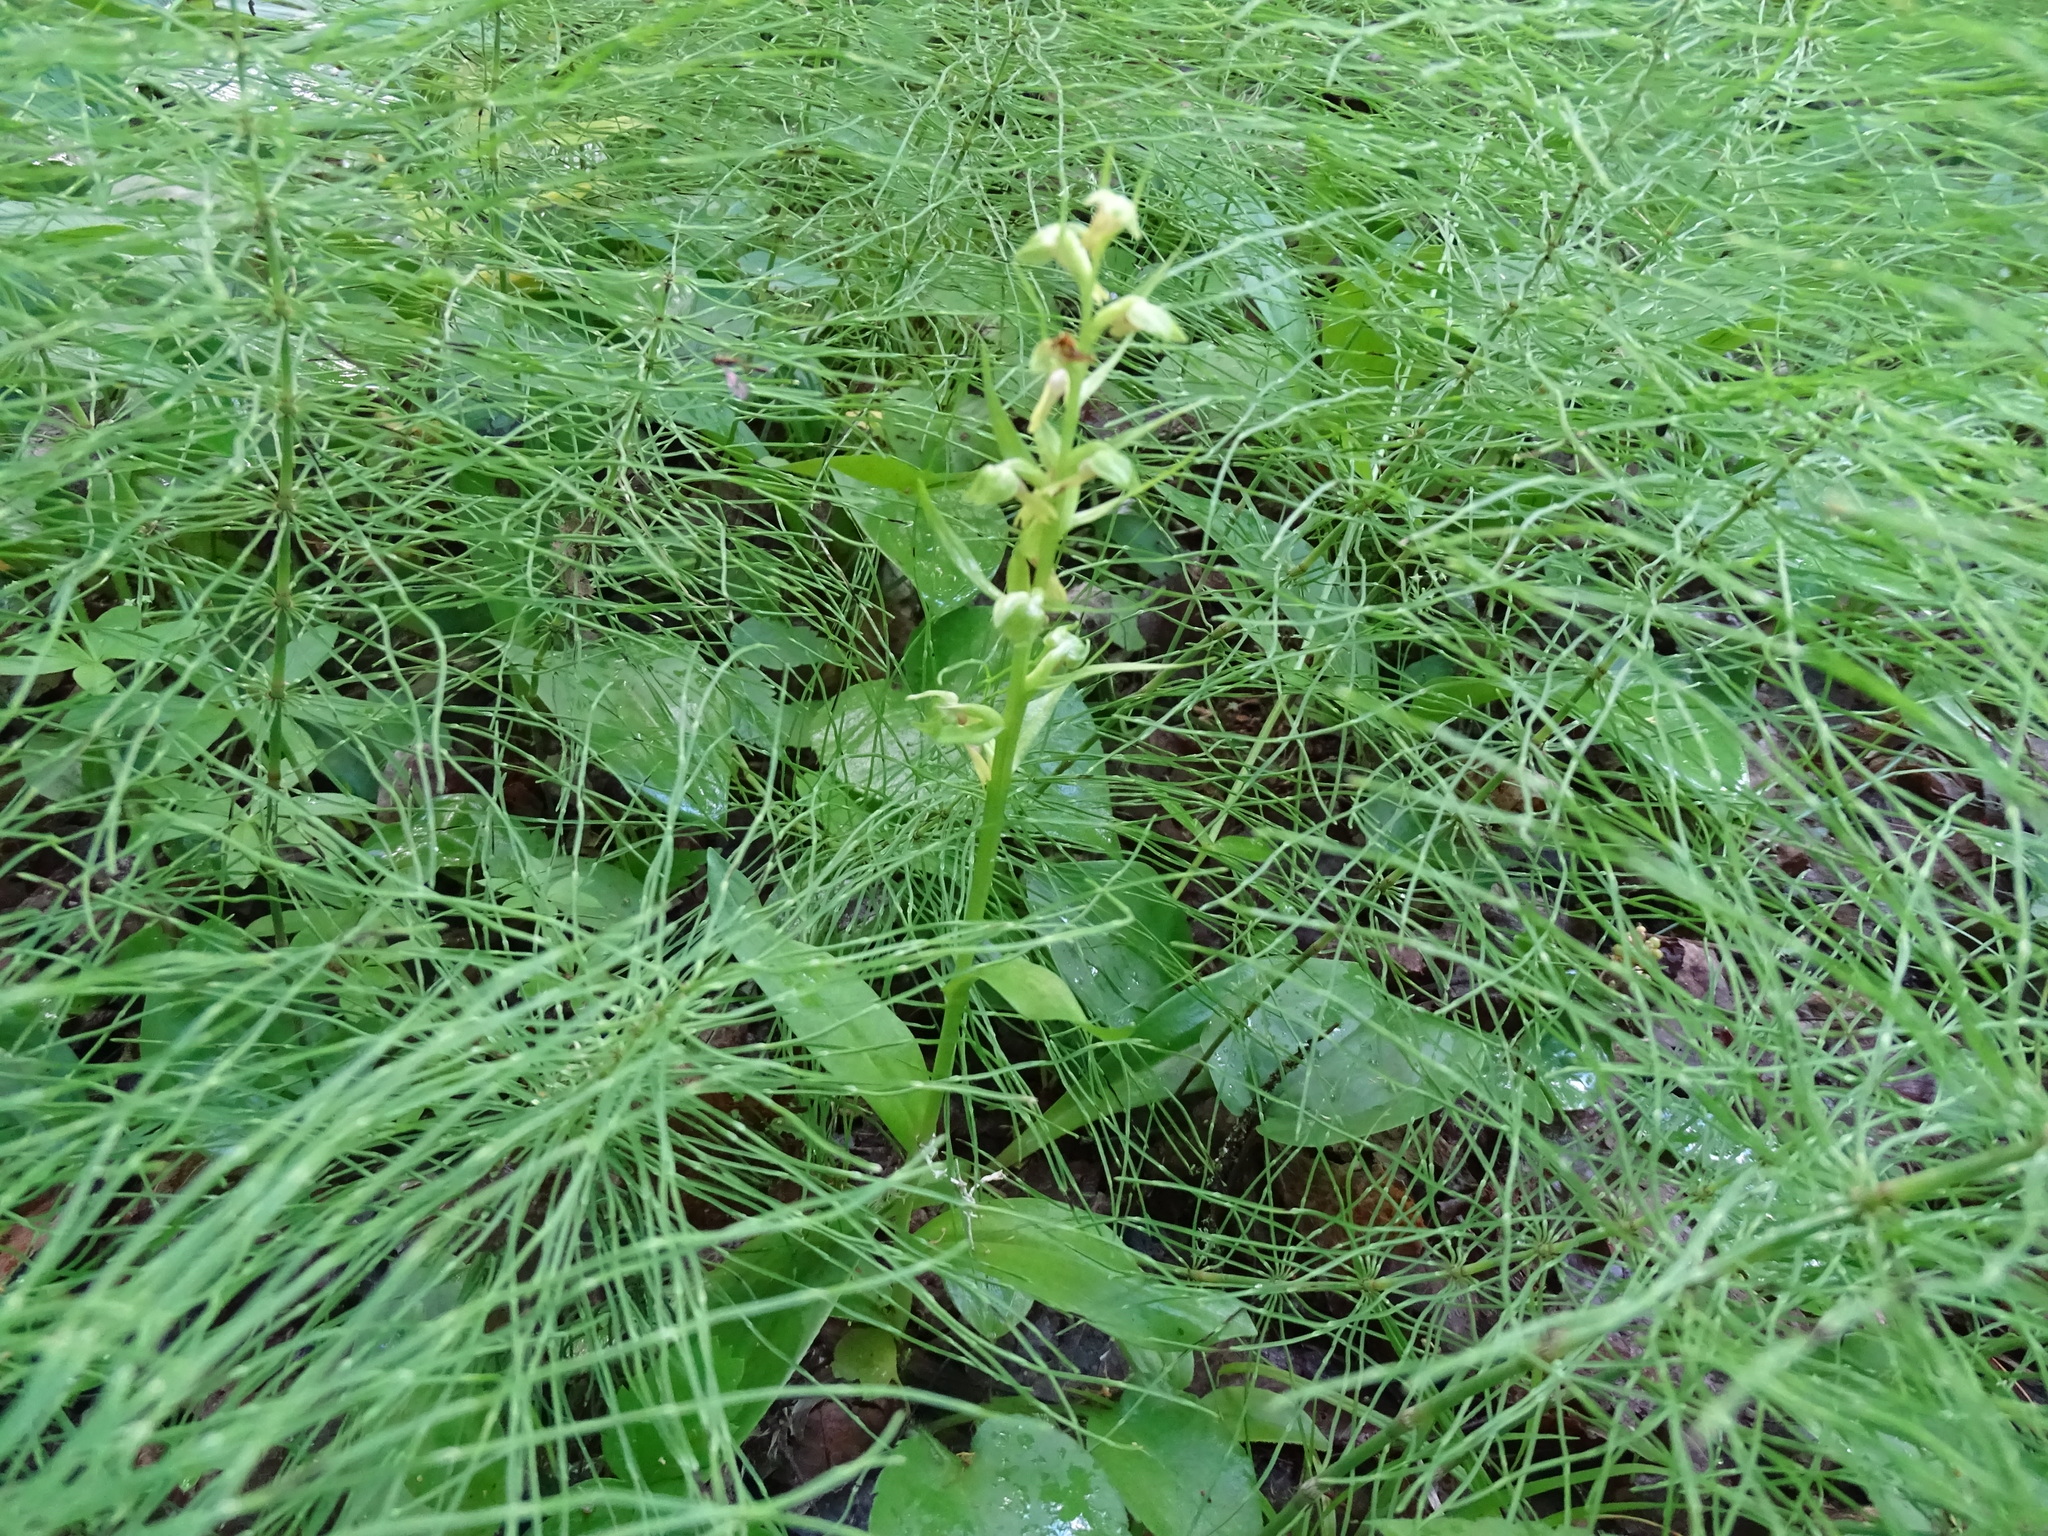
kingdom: Plantae
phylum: Tracheophyta
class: Liliopsida
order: Asparagales
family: Orchidaceae
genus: Dactylorhiza
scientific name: Dactylorhiza viridis
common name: Longbract frog orchid
